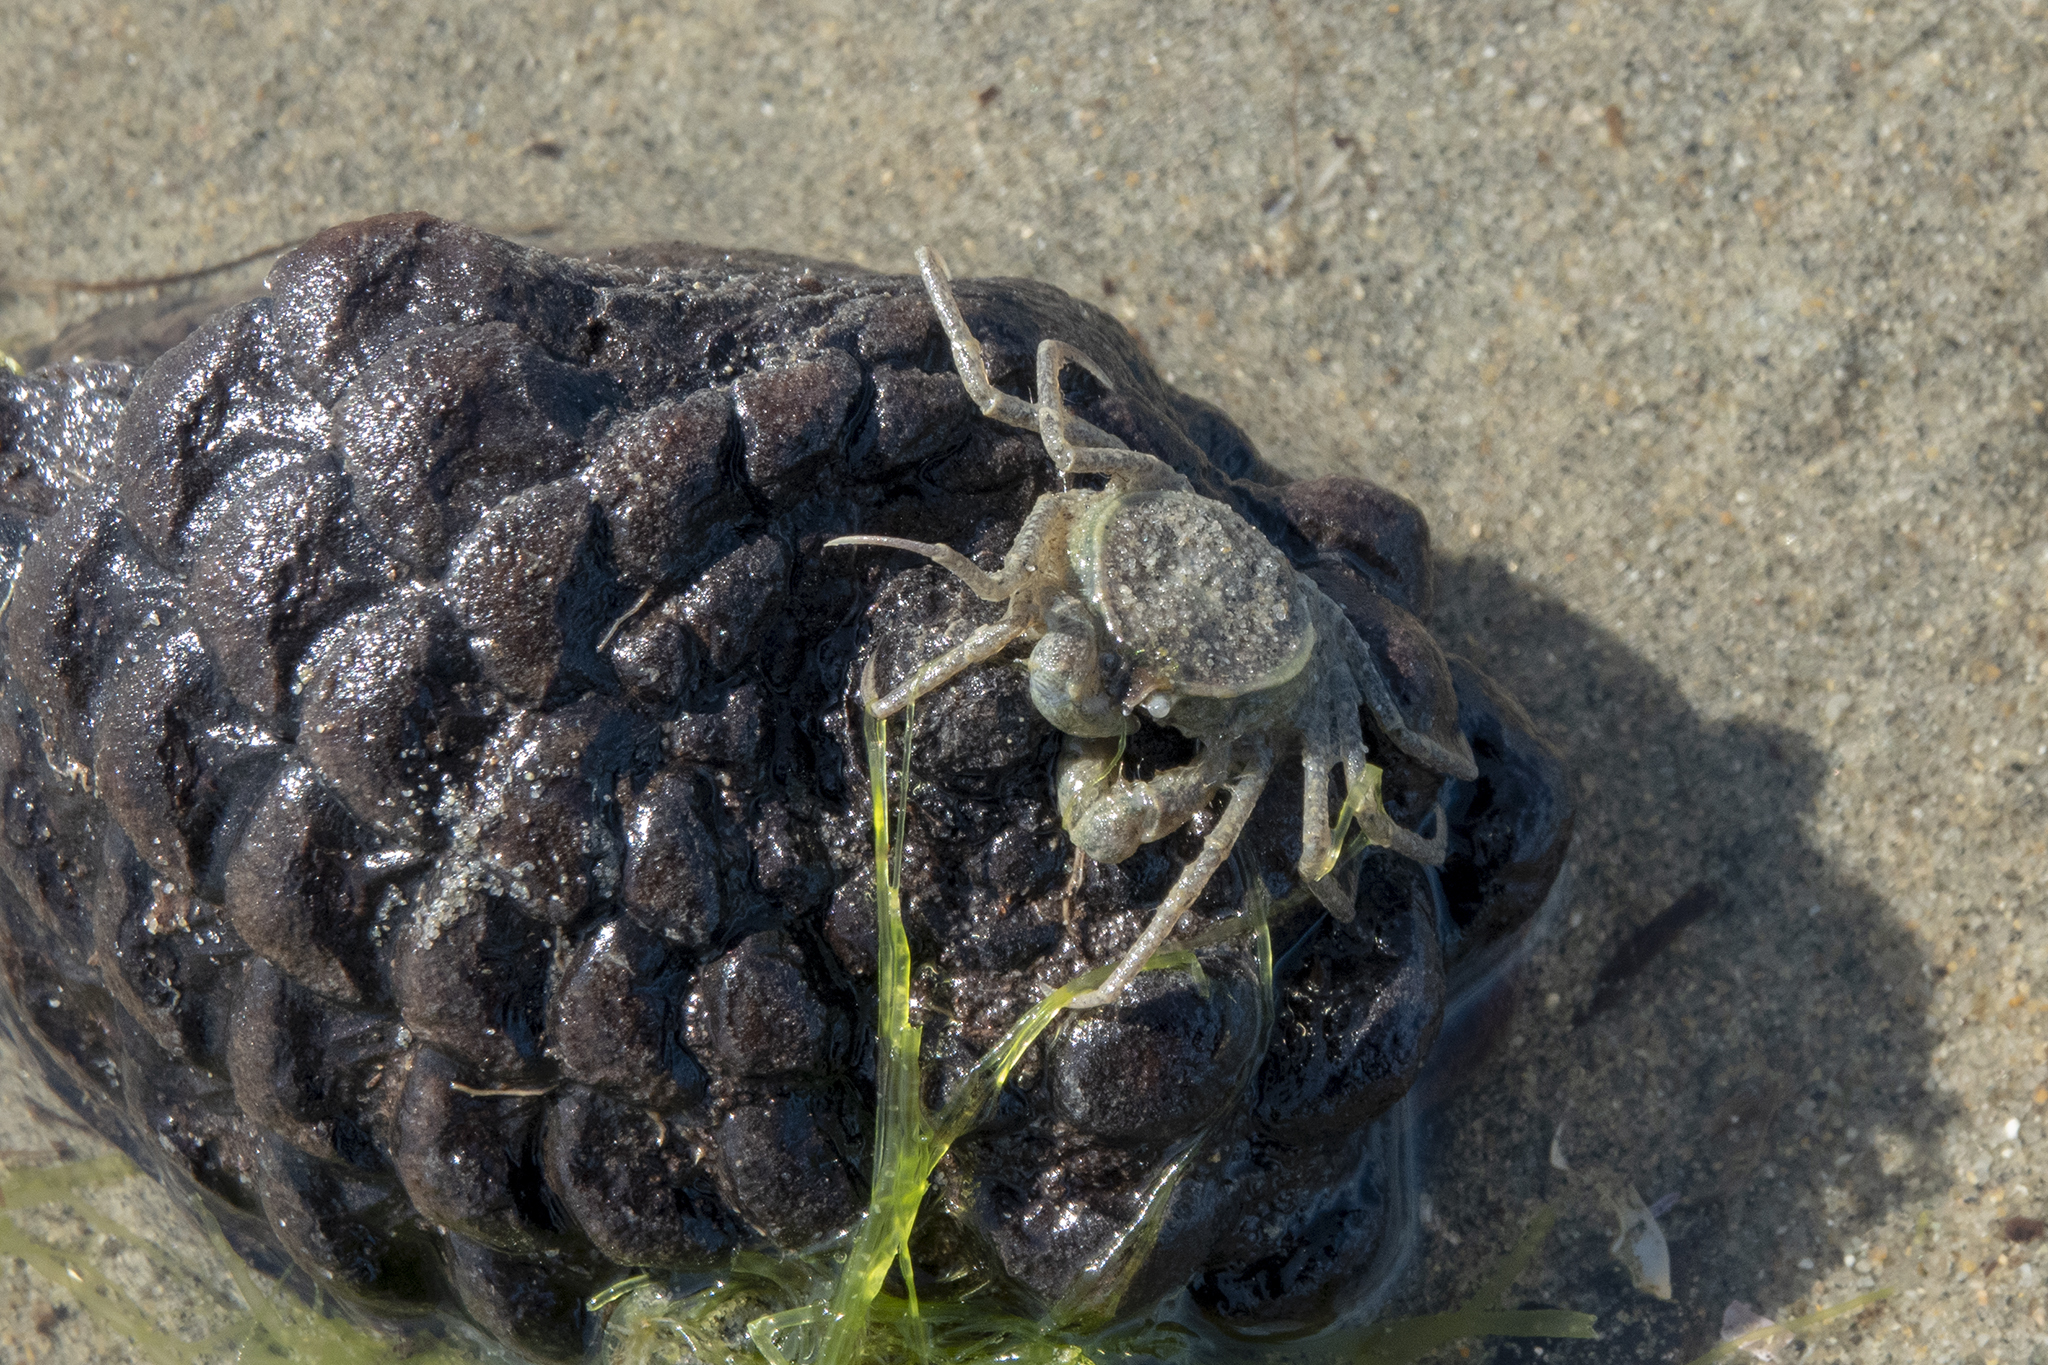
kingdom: Animalia
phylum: Arthropoda
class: Malacostraca
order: Decapoda
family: Hymenosomatidae
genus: Halicarcinus
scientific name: Halicarcinus whitei
